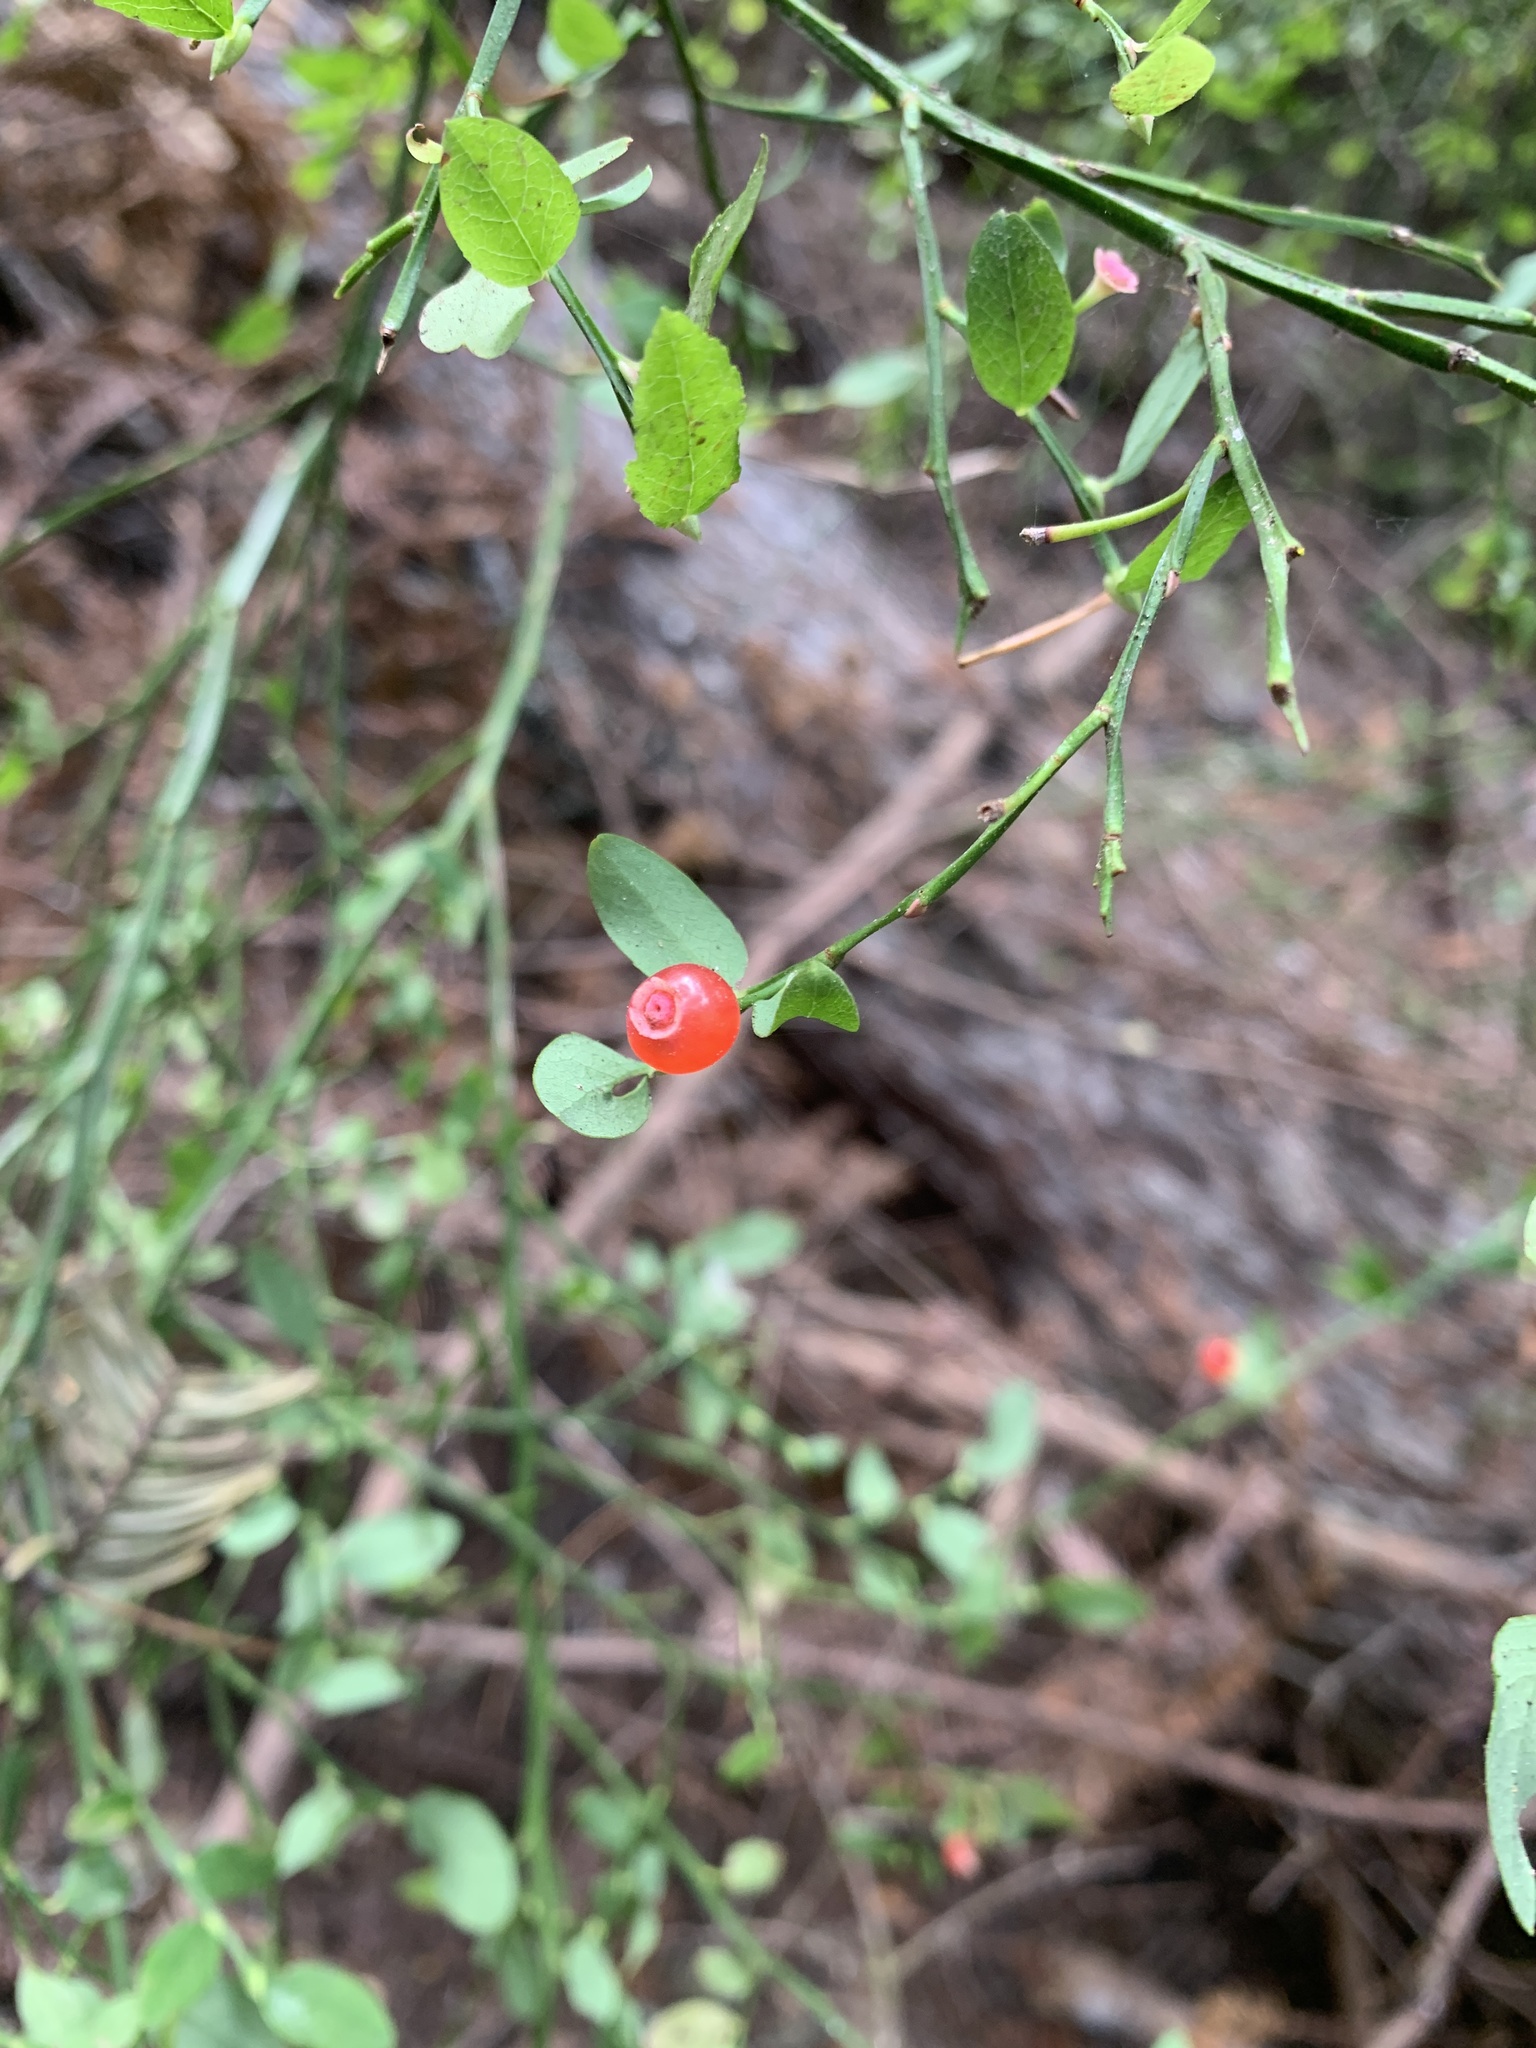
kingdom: Plantae
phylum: Tracheophyta
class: Magnoliopsida
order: Ericales
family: Ericaceae
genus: Vaccinium
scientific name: Vaccinium parvifolium
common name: Red-huckleberry
